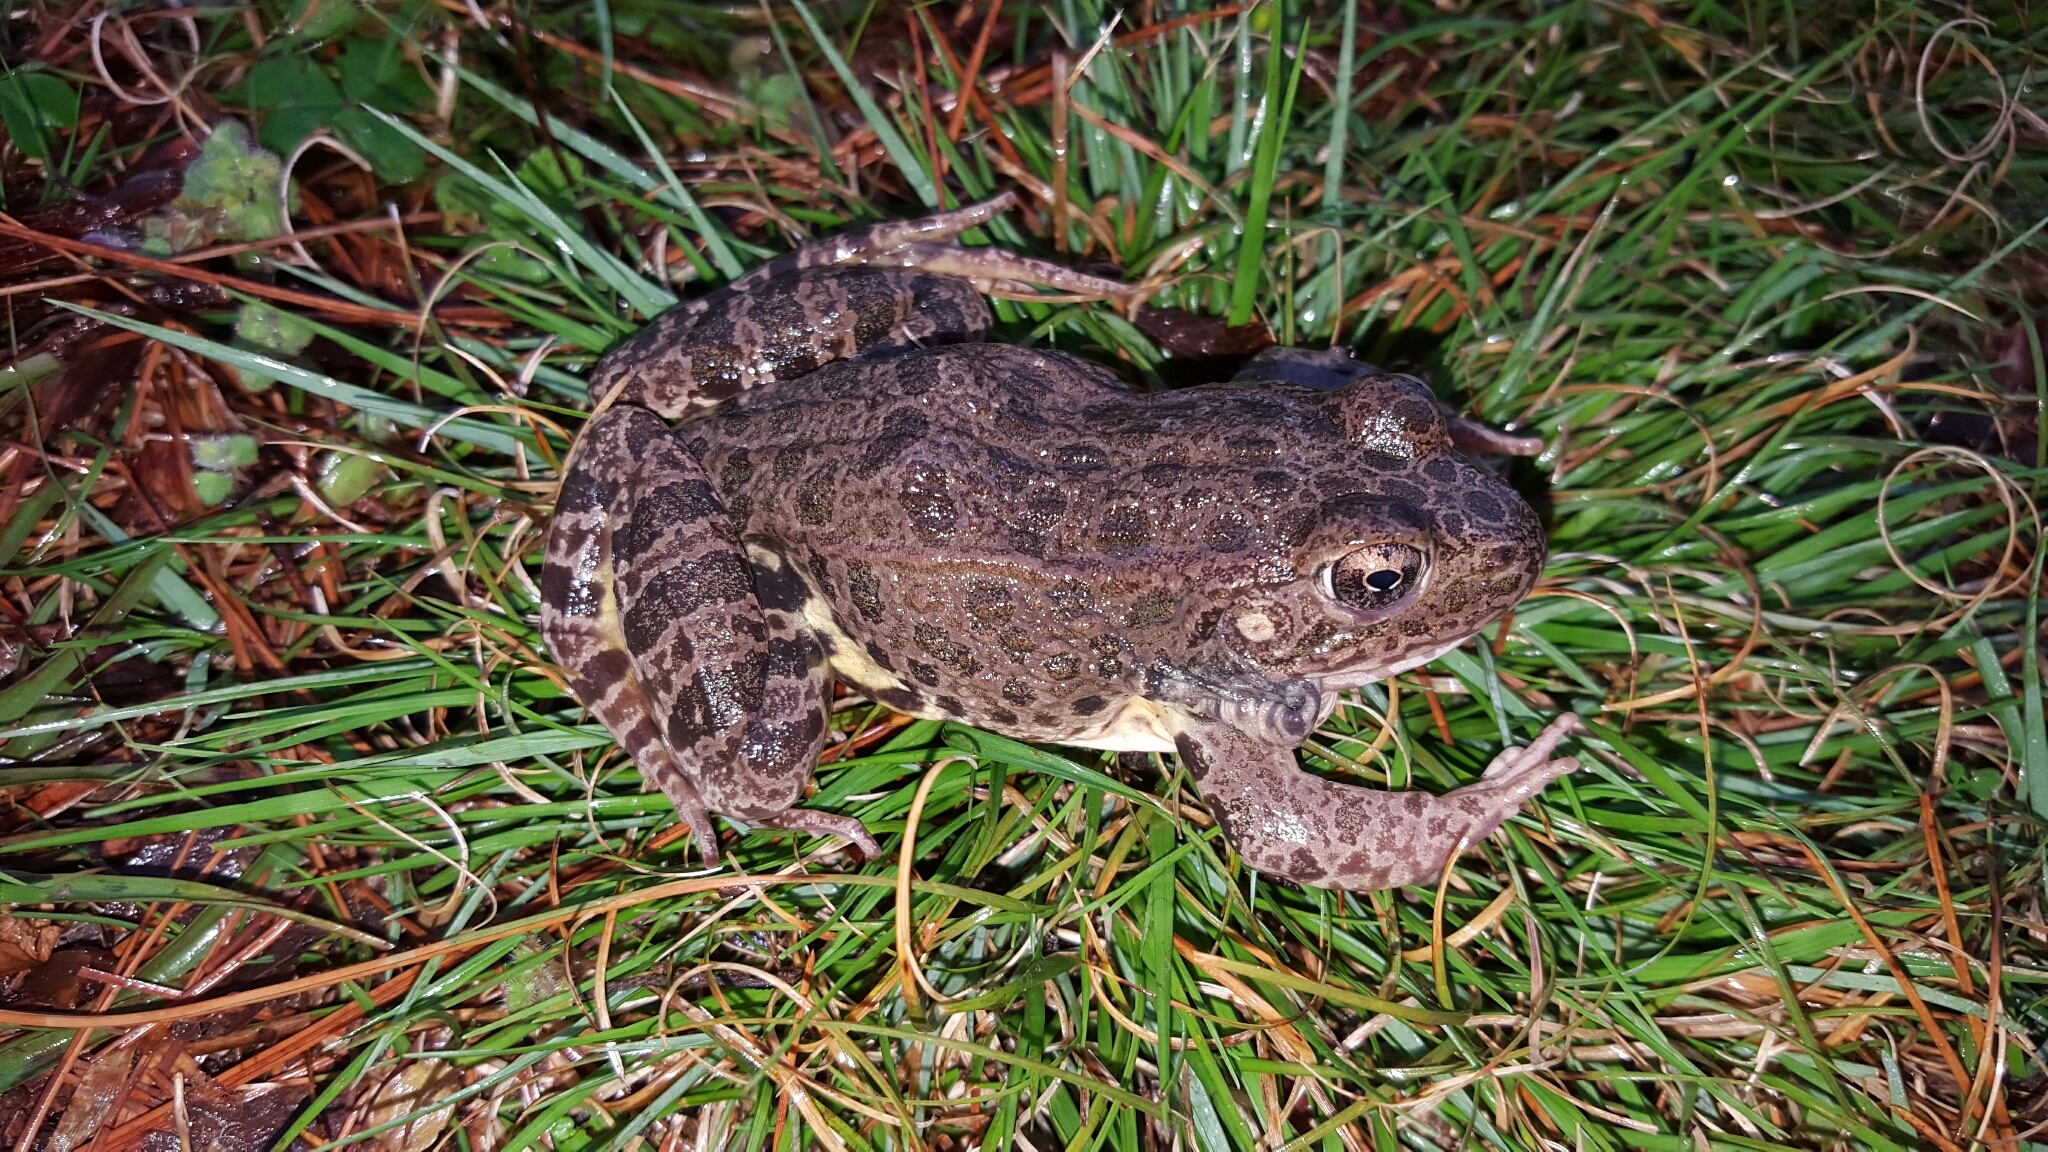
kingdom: Animalia
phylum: Chordata
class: Amphibia
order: Anura
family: Ranidae
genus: Lithobates
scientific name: Lithobates areolatus
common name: Crawfish frog
